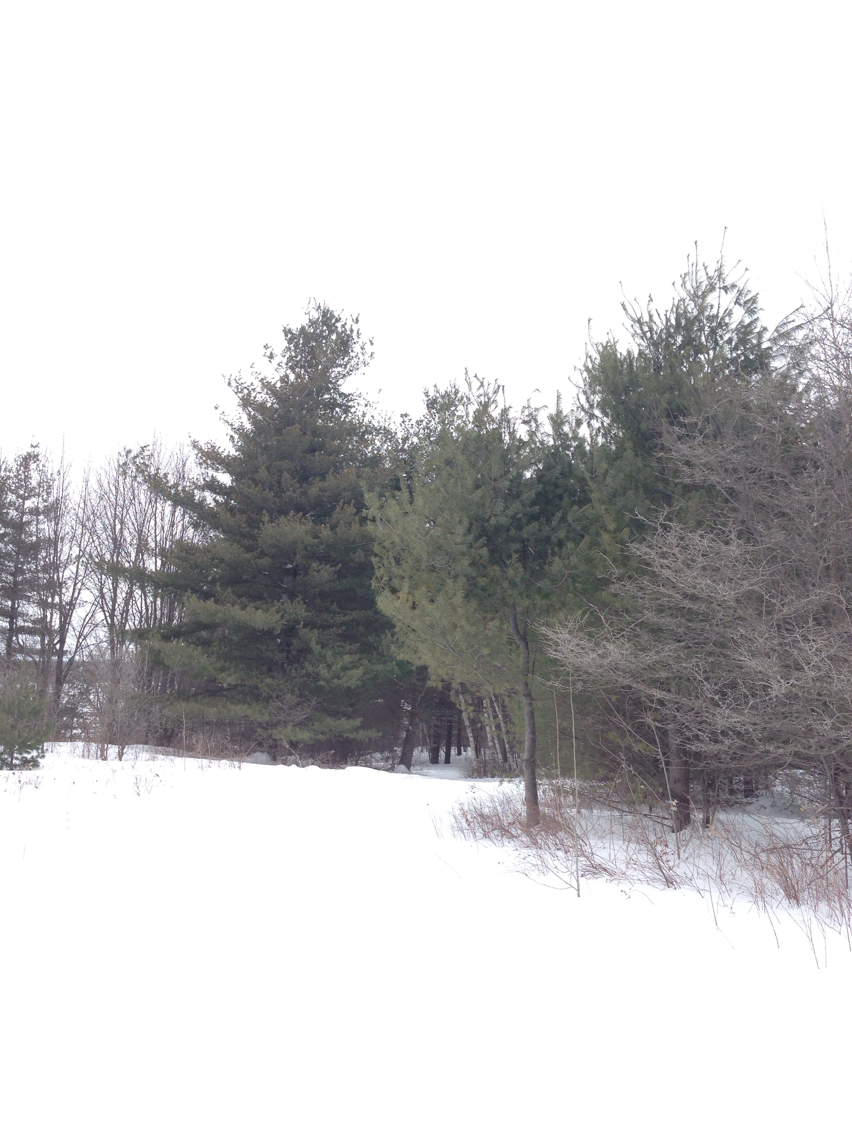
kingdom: Plantae
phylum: Tracheophyta
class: Pinopsida
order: Pinales
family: Pinaceae
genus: Pinus
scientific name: Pinus strobus
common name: Weymouth pine
